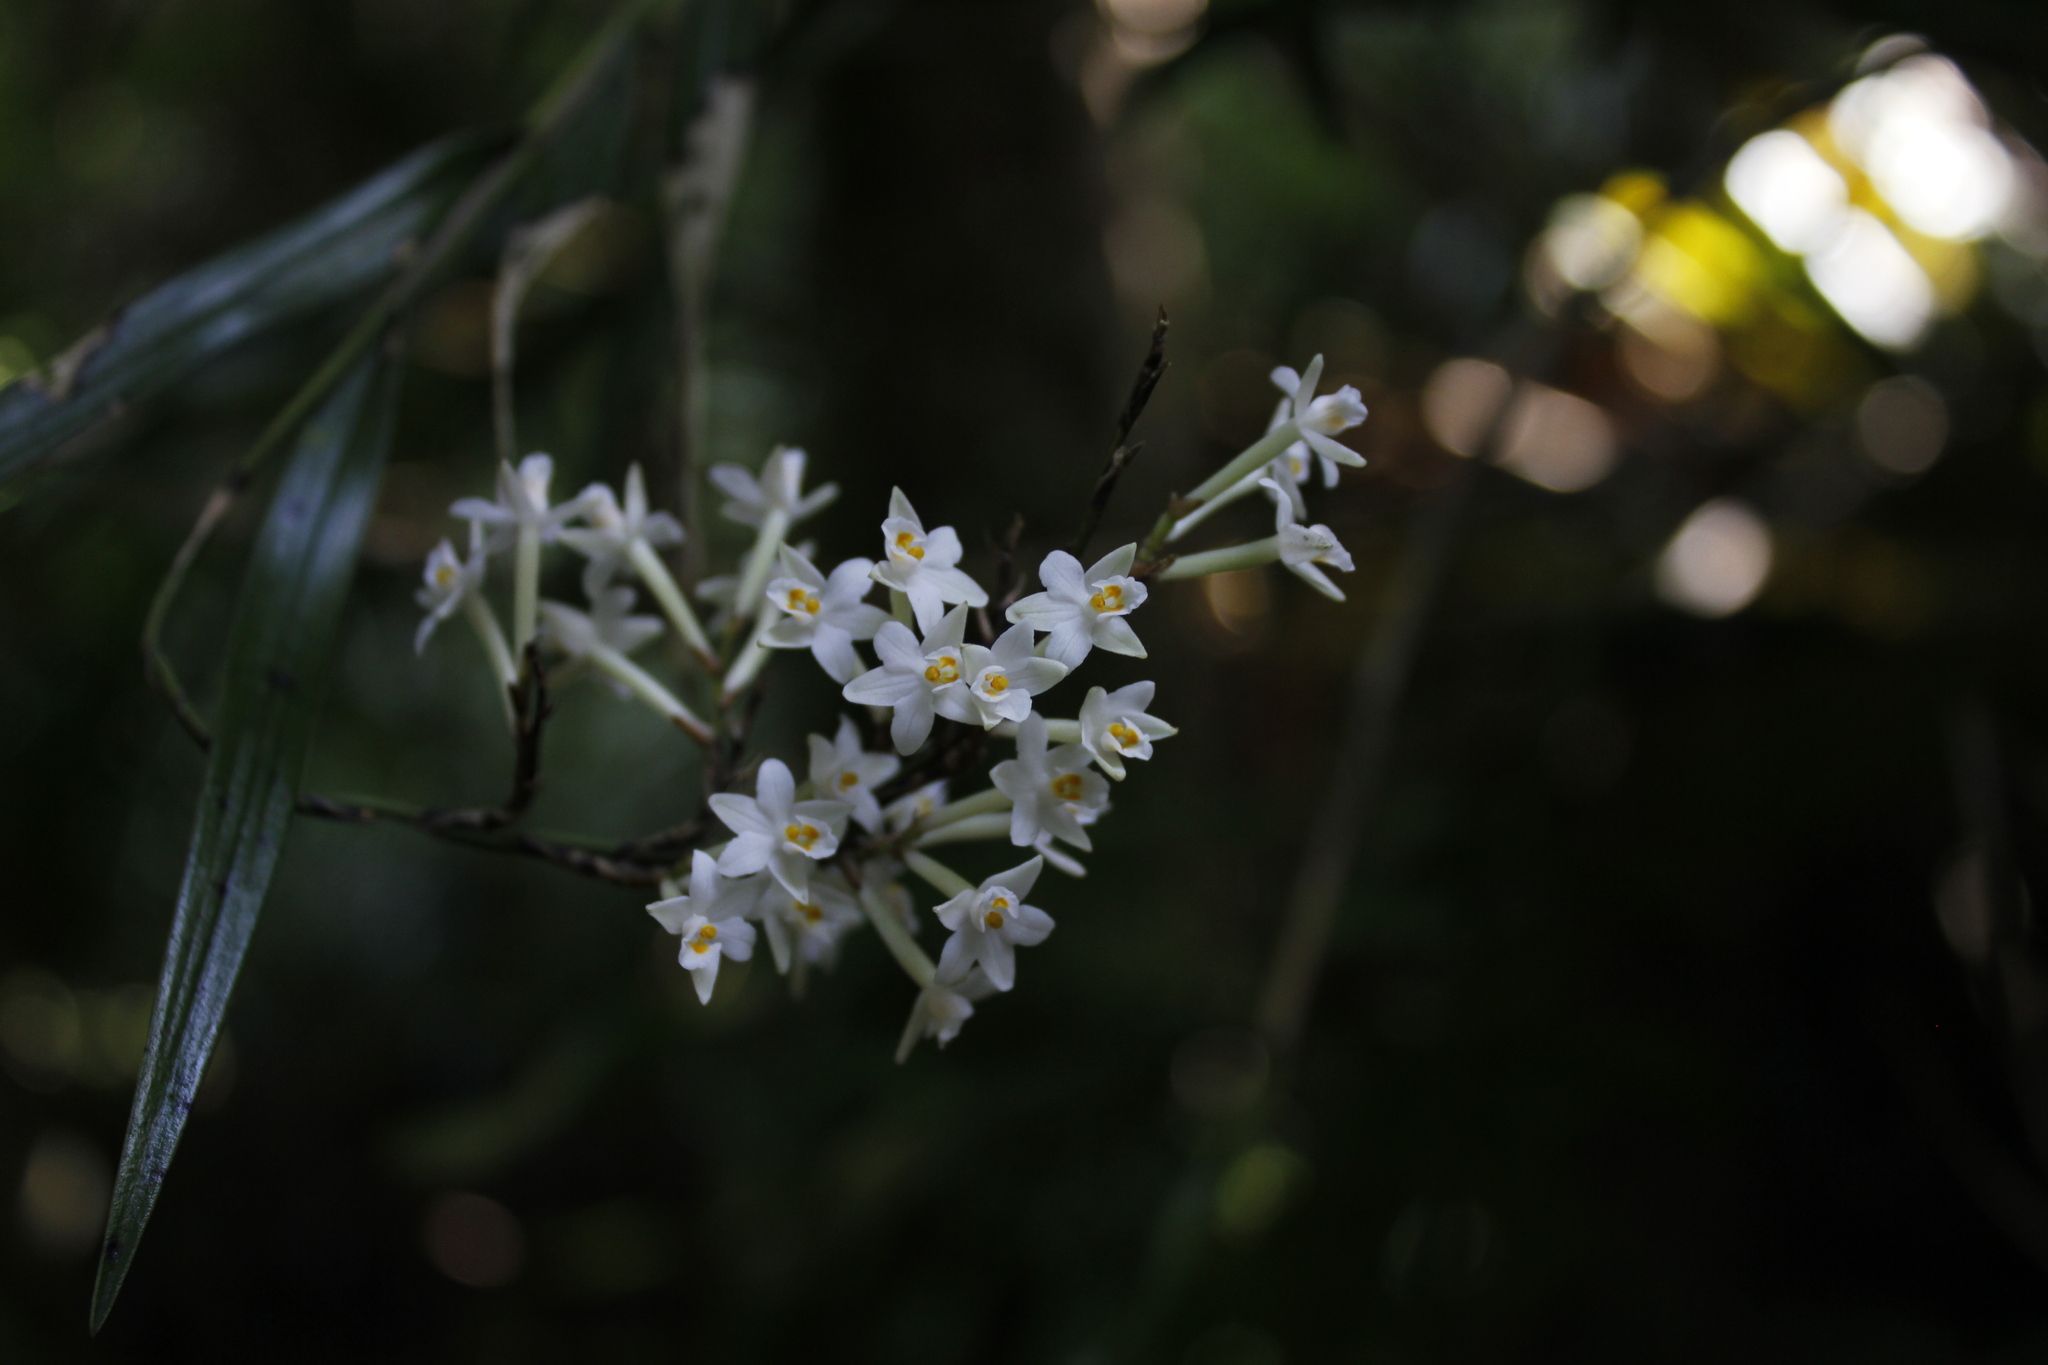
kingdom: Plantae
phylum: Tracheophyta
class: Liliopsida
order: Asparagales
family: Orchidaceae
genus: Earina
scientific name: Earina autumnalis
